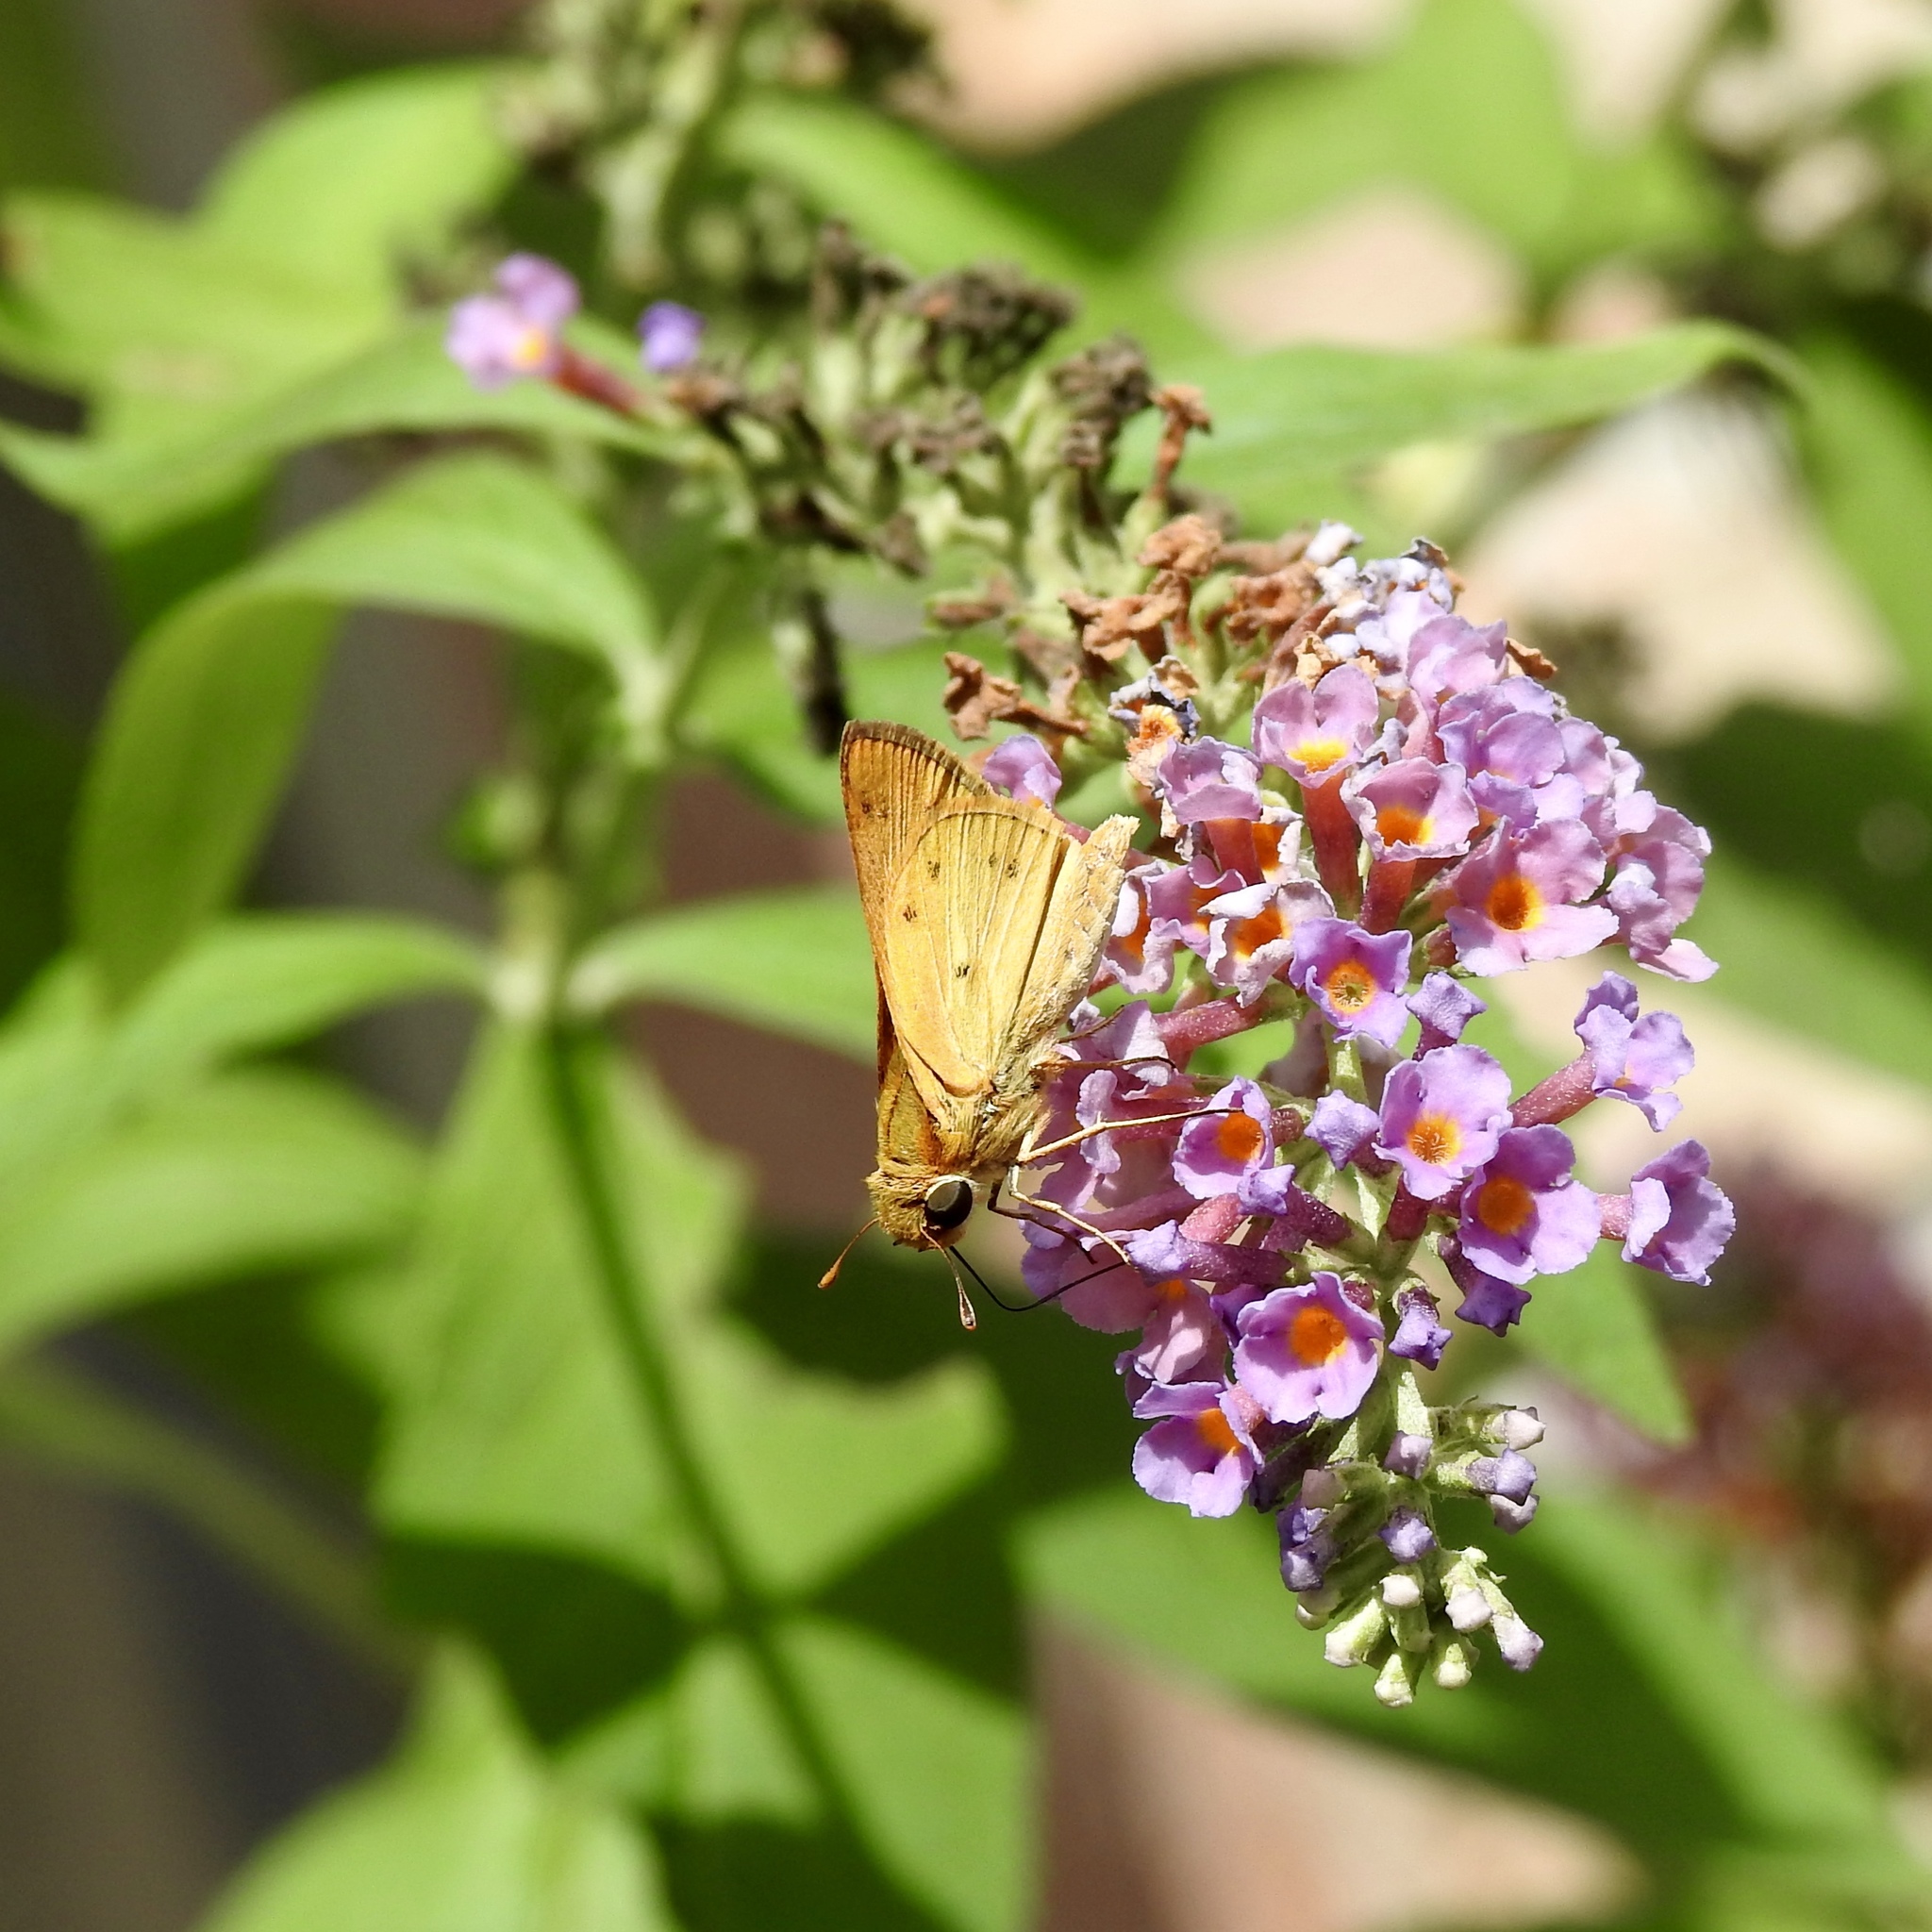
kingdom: Animalia
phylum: Arthropoda
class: Insecta
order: Lepidoptera
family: Hesperiidae
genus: Hylephila
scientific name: Hylephila phyleus
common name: Fiery skipper
